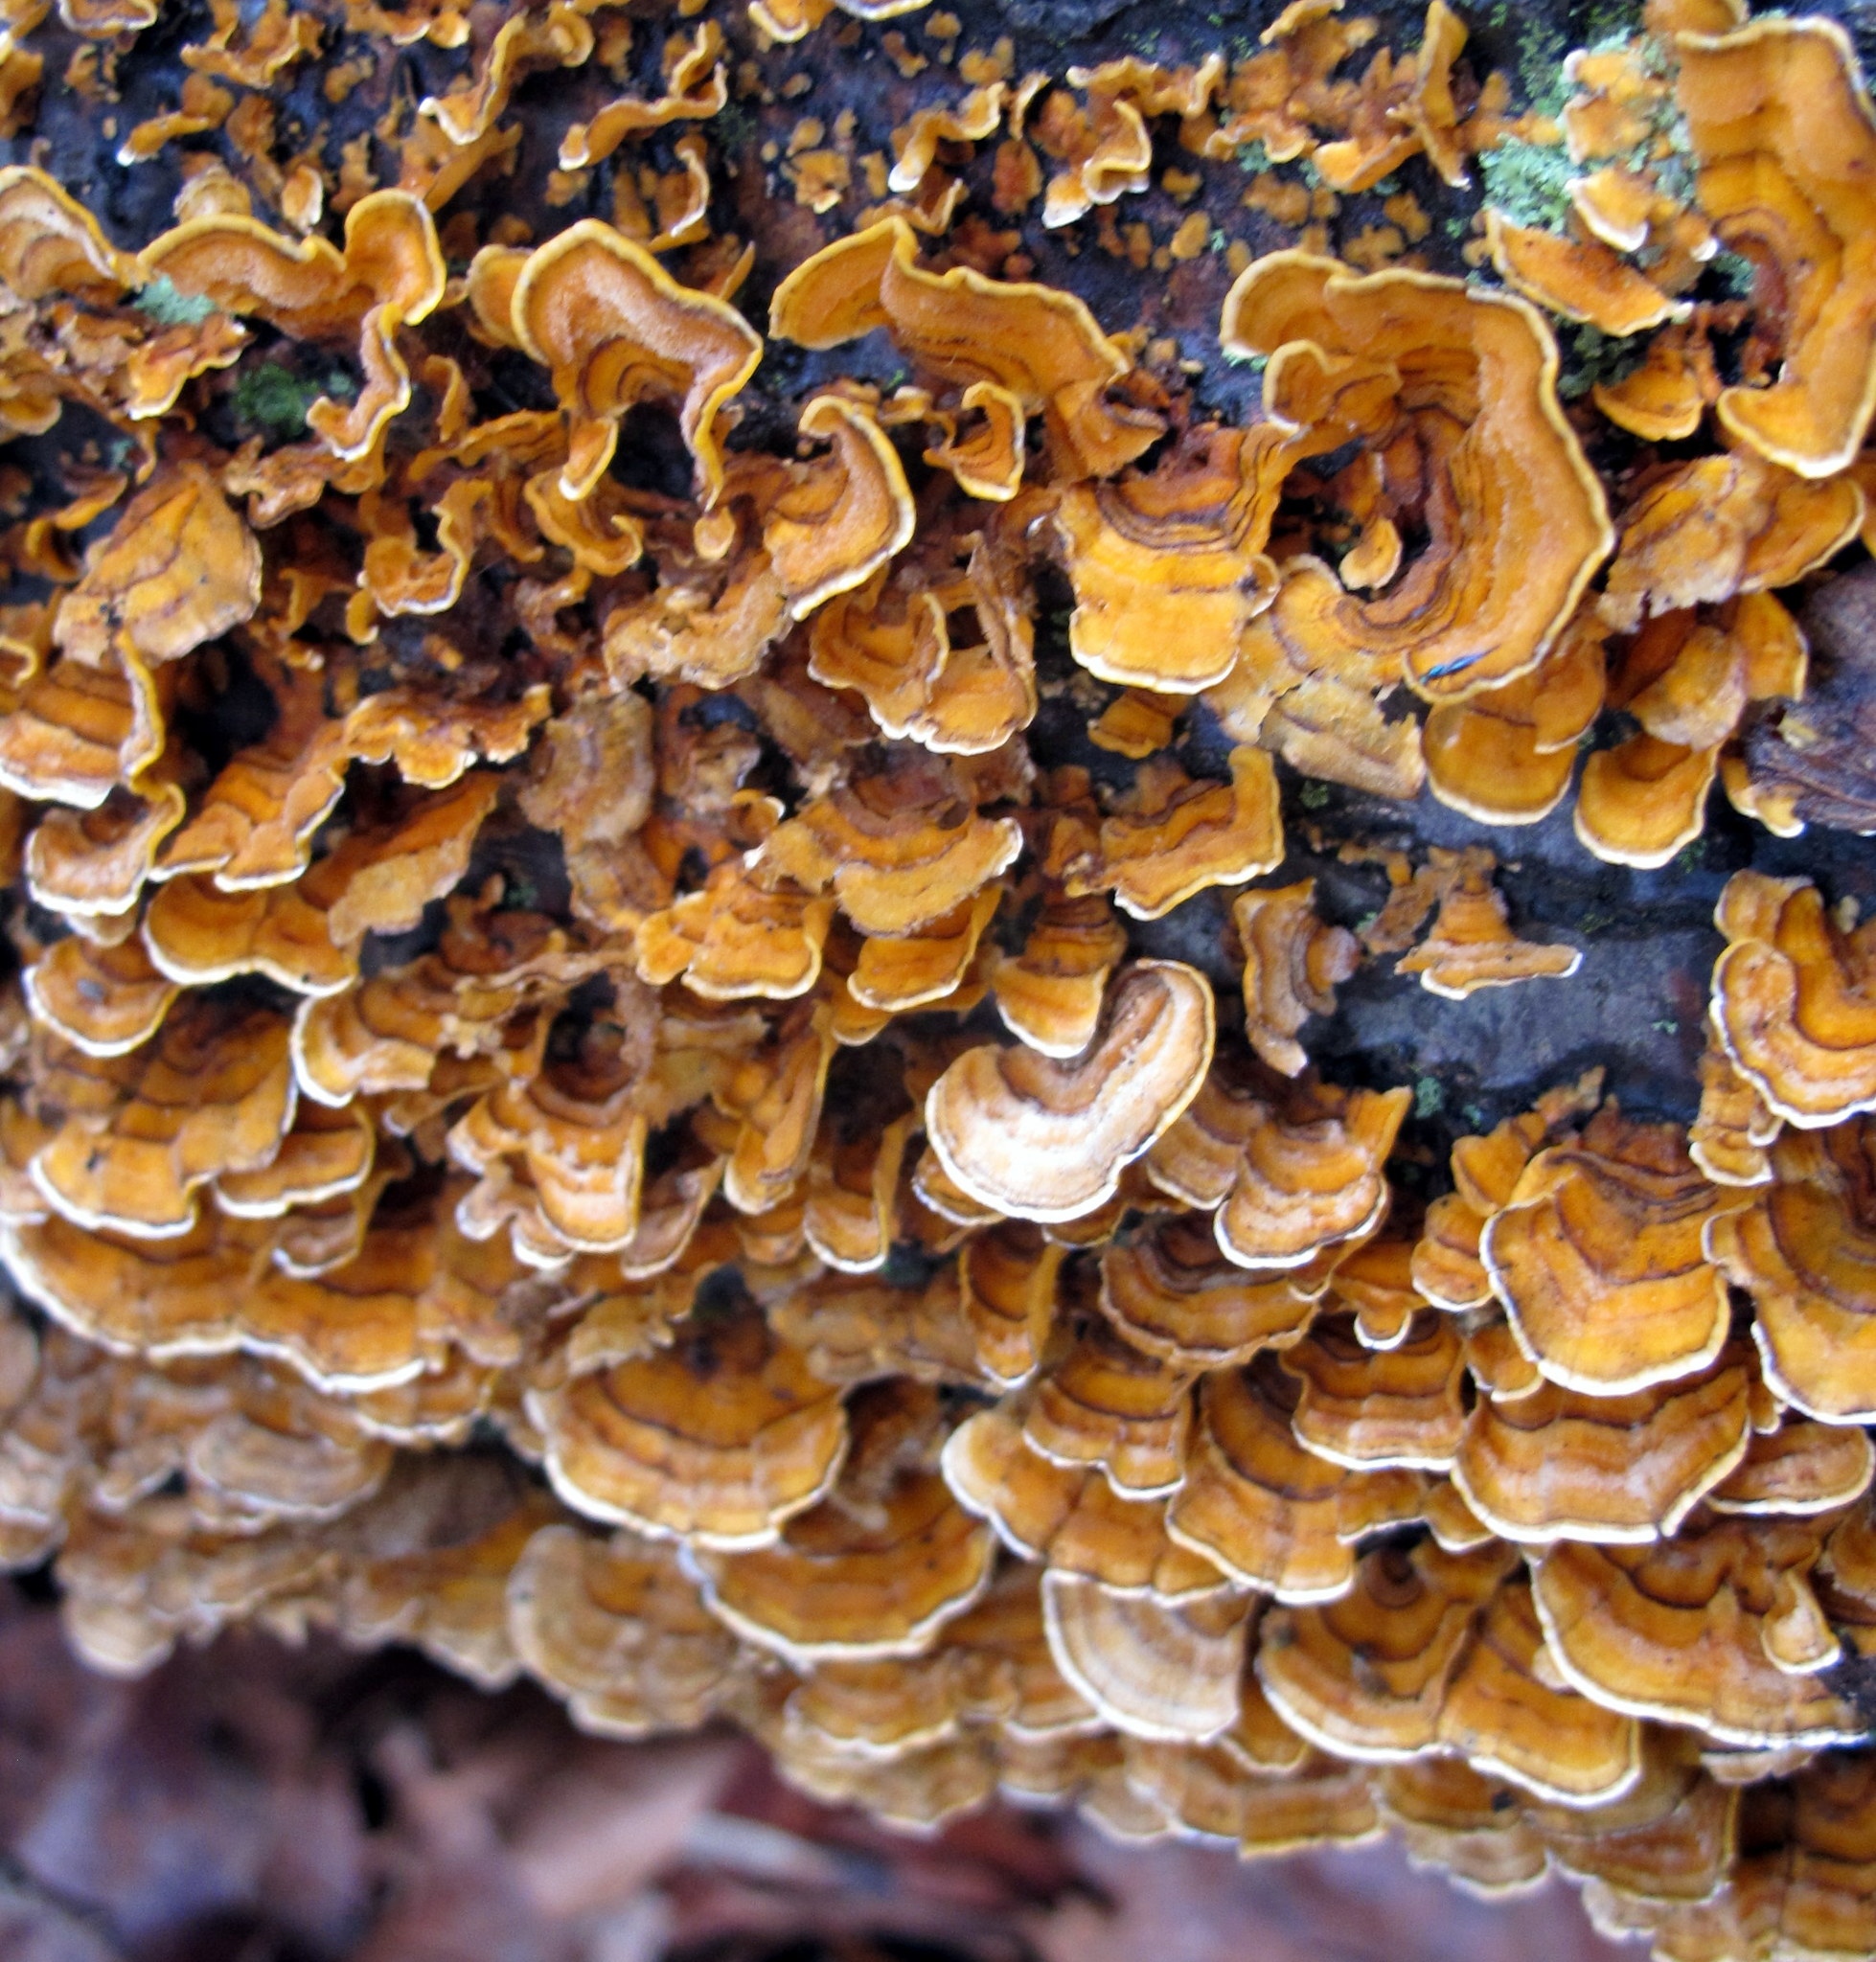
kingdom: Fungi
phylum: Basidiomycota
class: Agaricomycetes
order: Russulales
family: Stereaceae
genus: Stereum
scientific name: Stereum complicatum
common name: Crowded parchment
